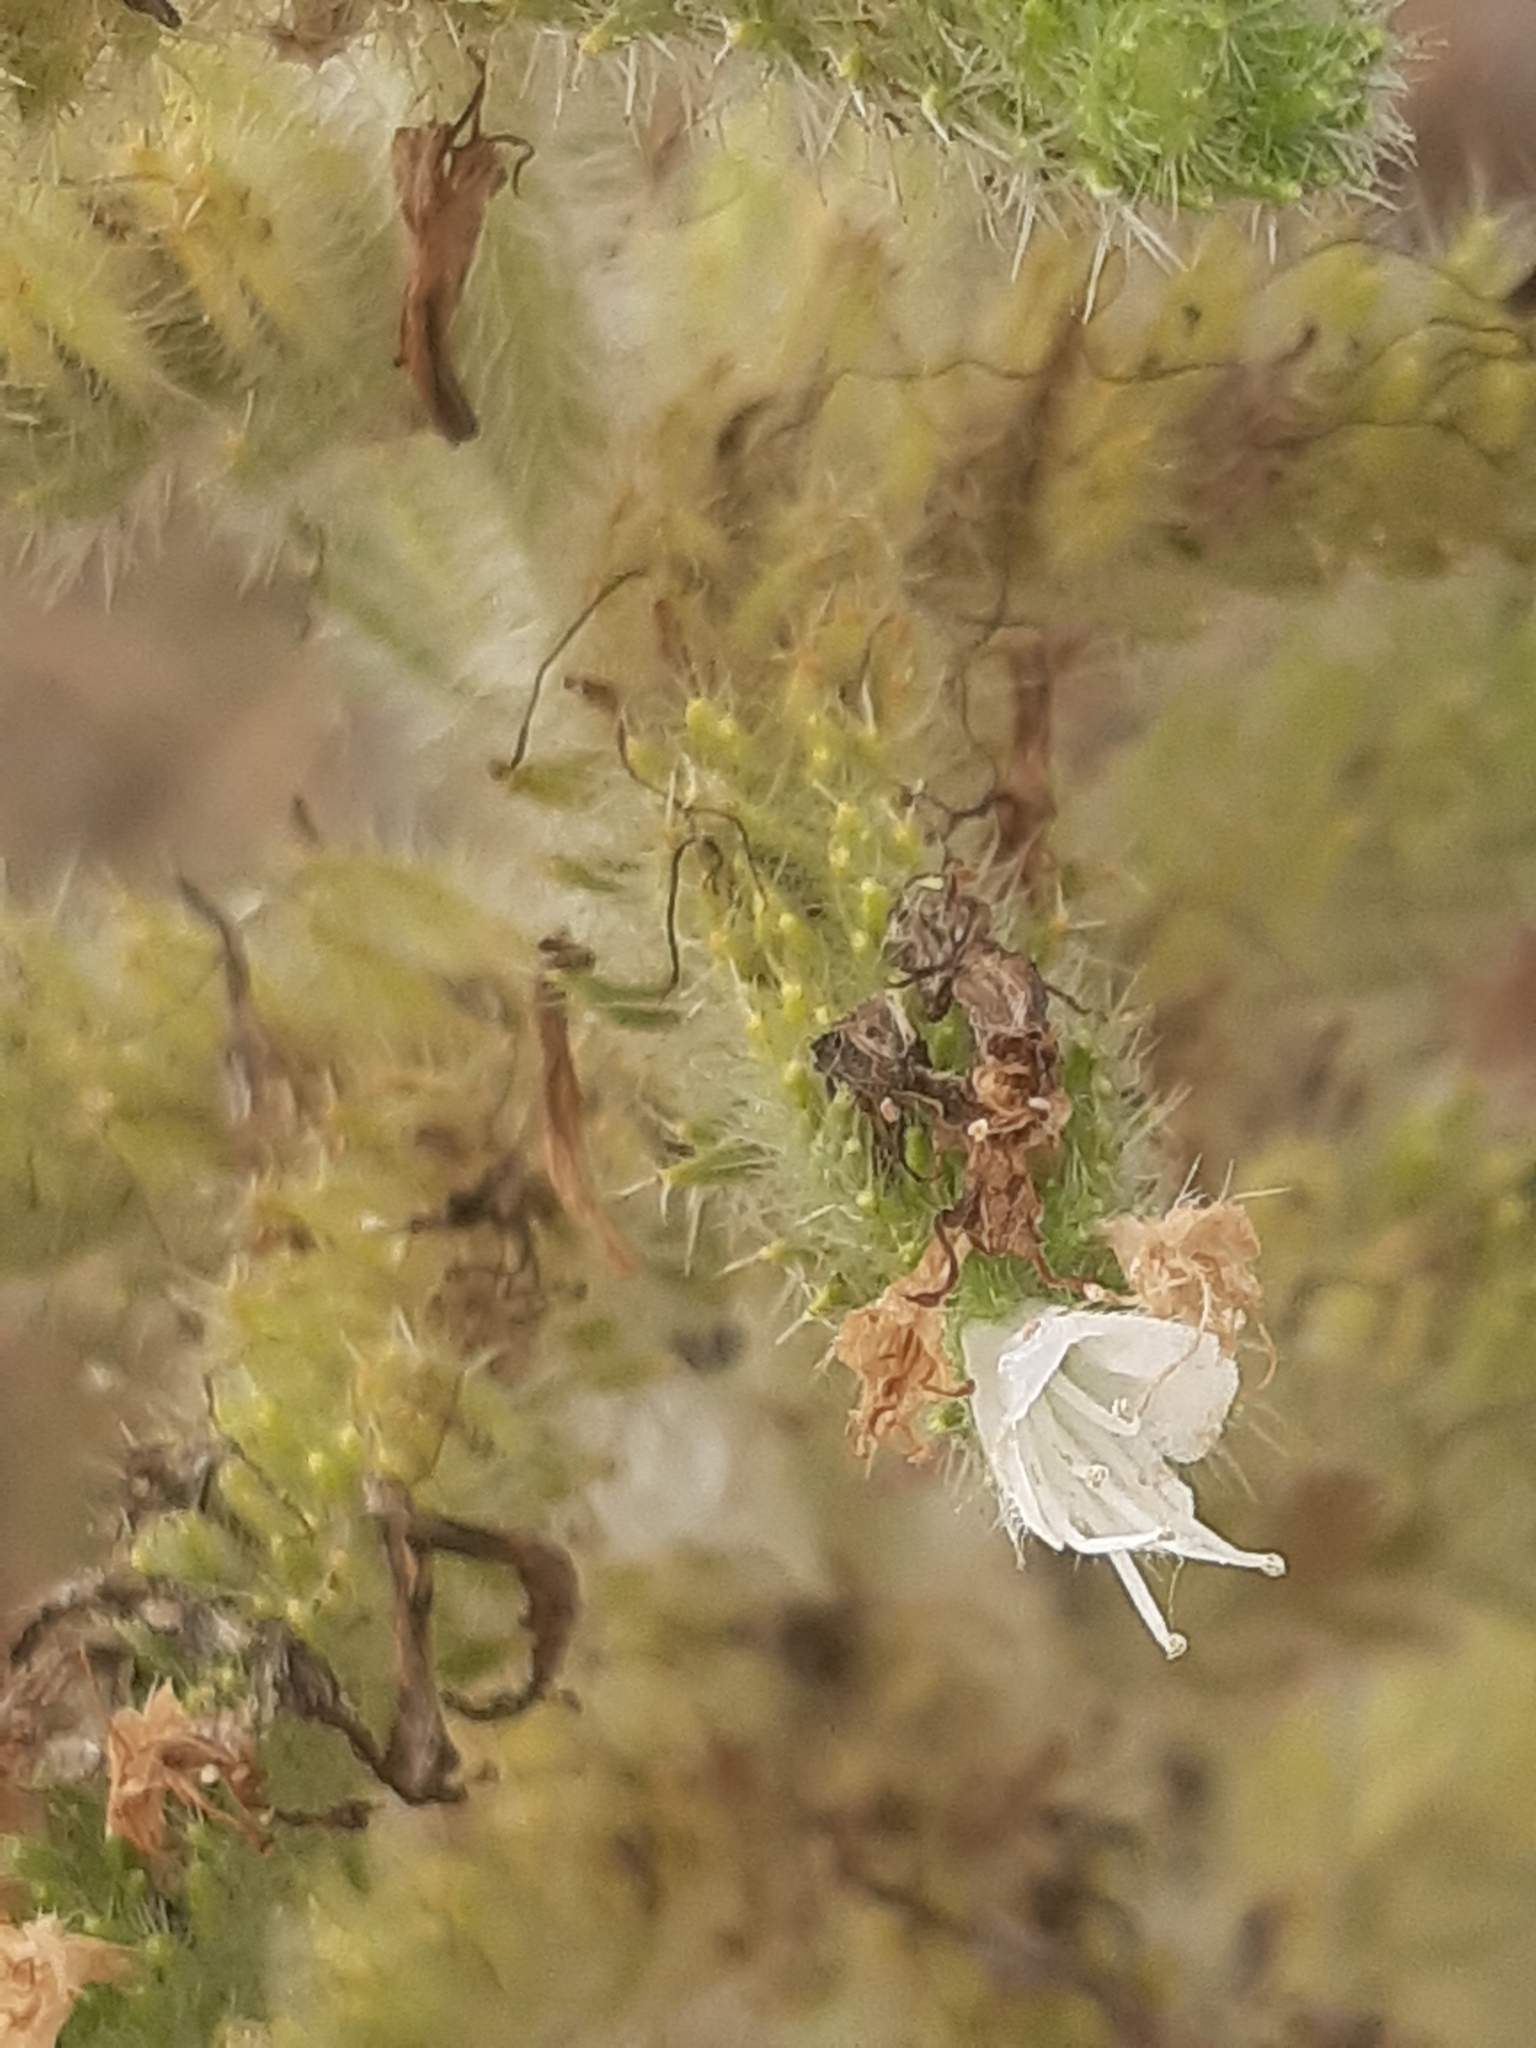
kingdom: Plantae
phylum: Tracheophyta
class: Magnoliopsida
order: Boraginales
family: Boraginaceae
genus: Echium
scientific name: Echium italicum
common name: Italian viper's bugloss
